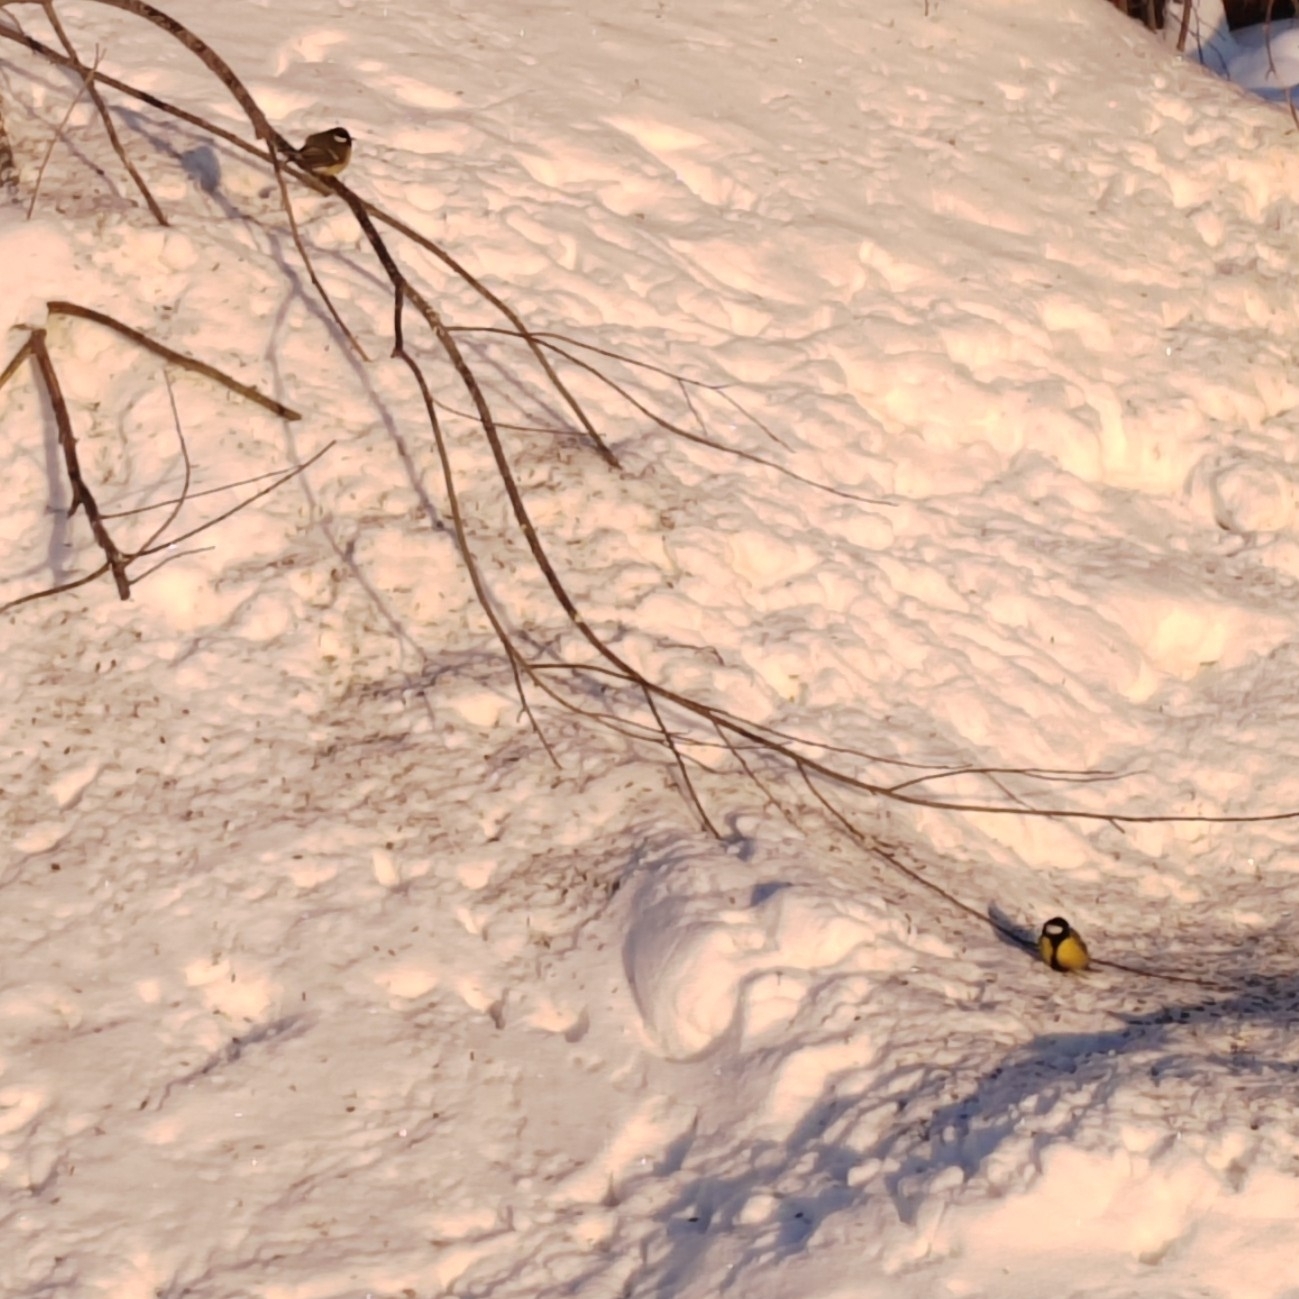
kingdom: Animalia
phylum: Chordata
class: Aves
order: Passeriformes
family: Paridae
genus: Parus
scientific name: Parus major
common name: Great tit
